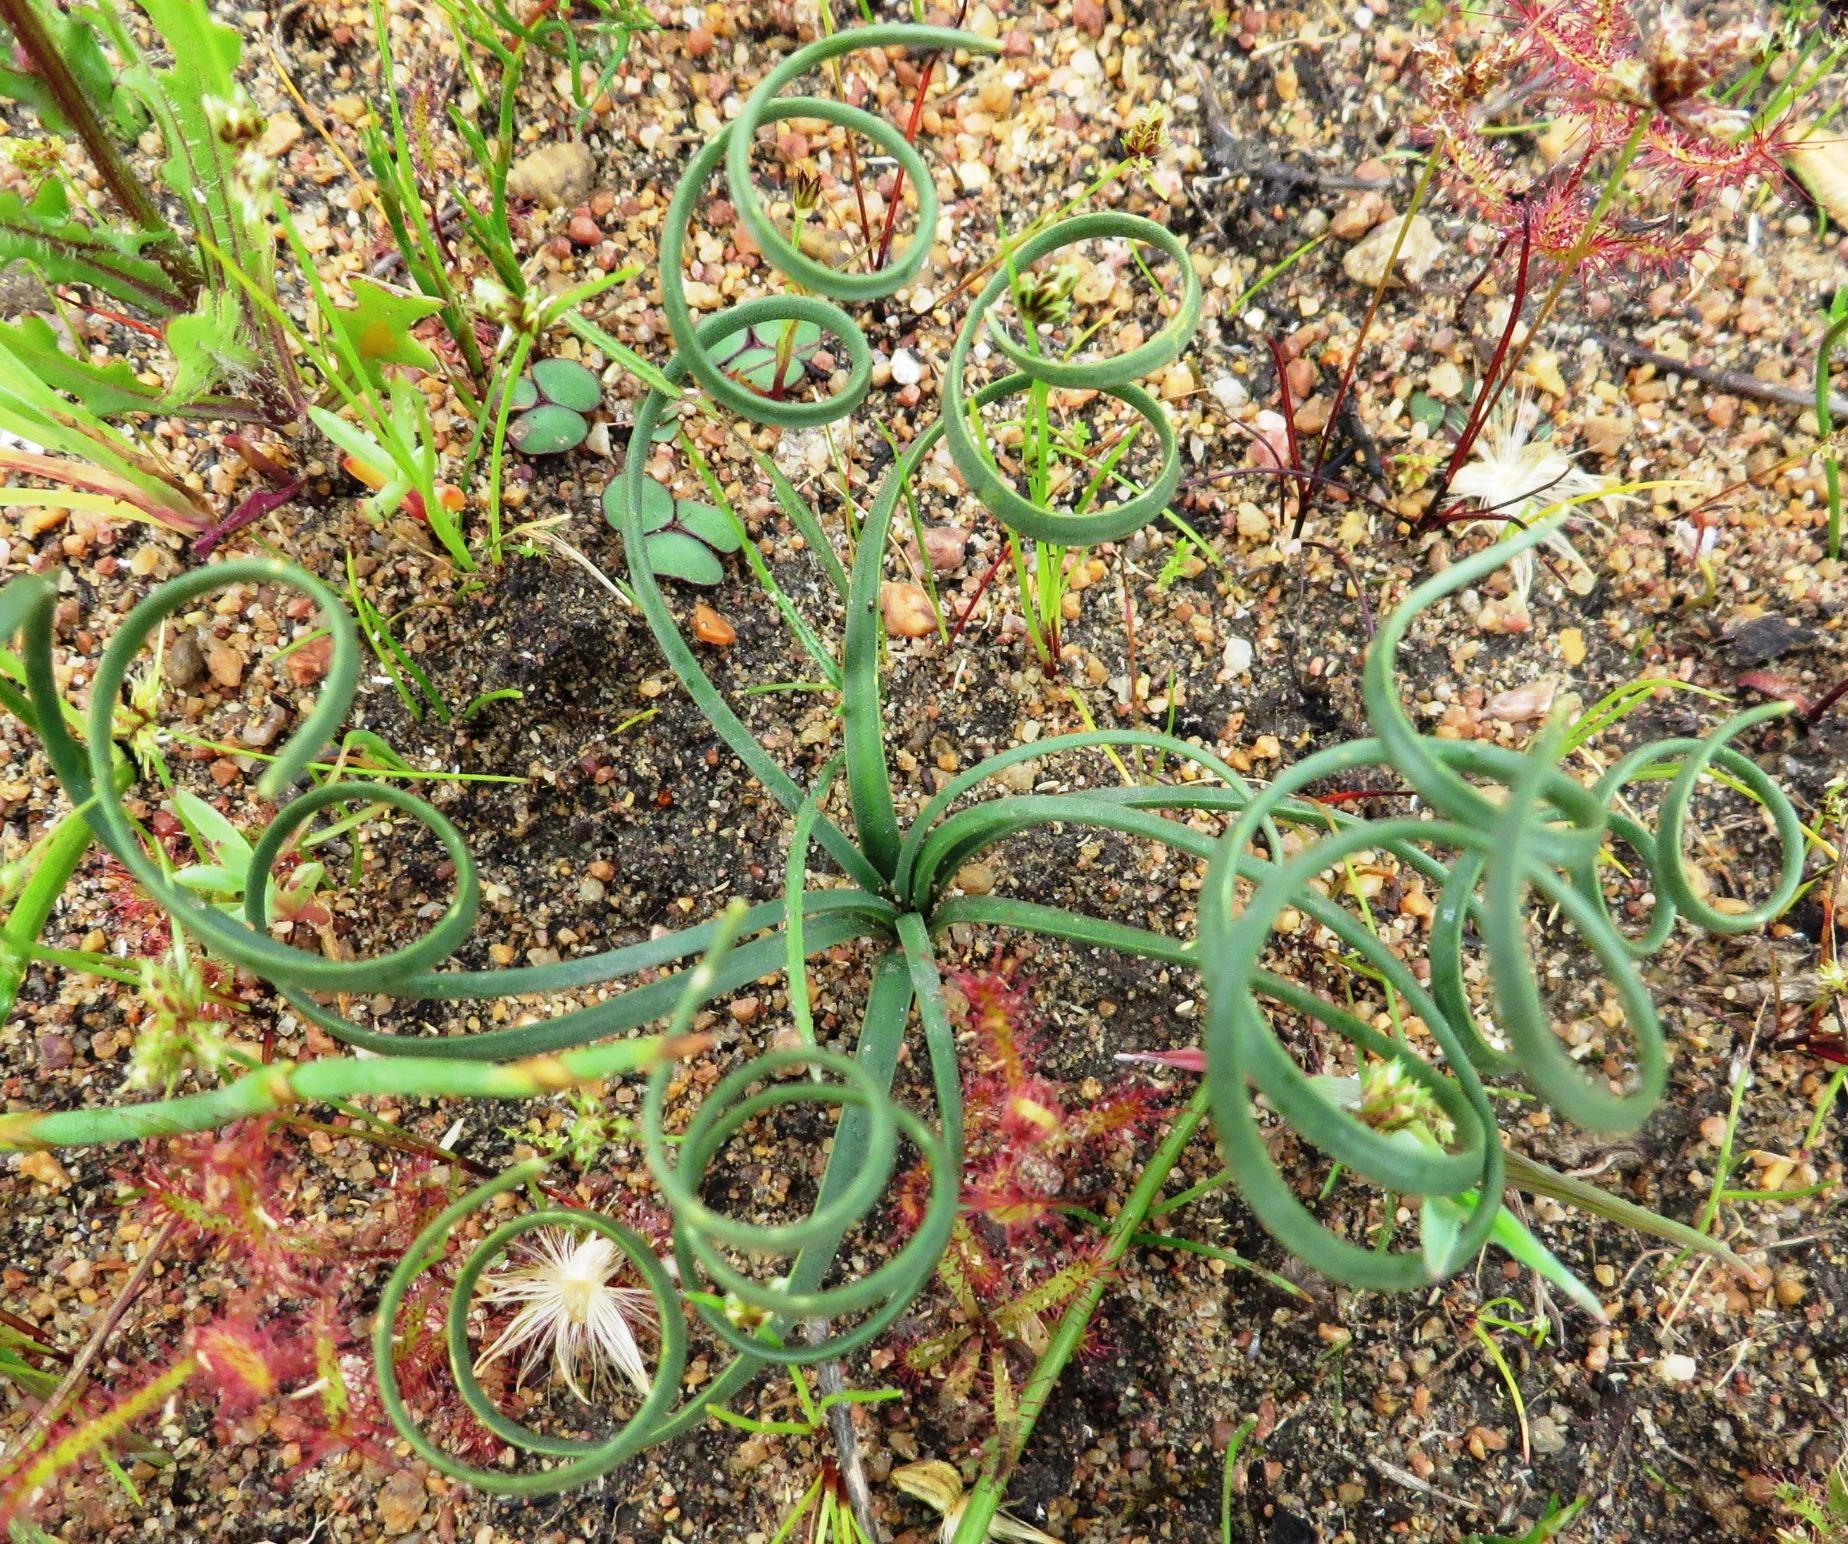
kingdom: Plantae
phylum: Tracheophyta
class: Liliopsida
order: Asparagales
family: Amaryllidaceae
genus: Gethyllis
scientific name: Gethyllis afra
